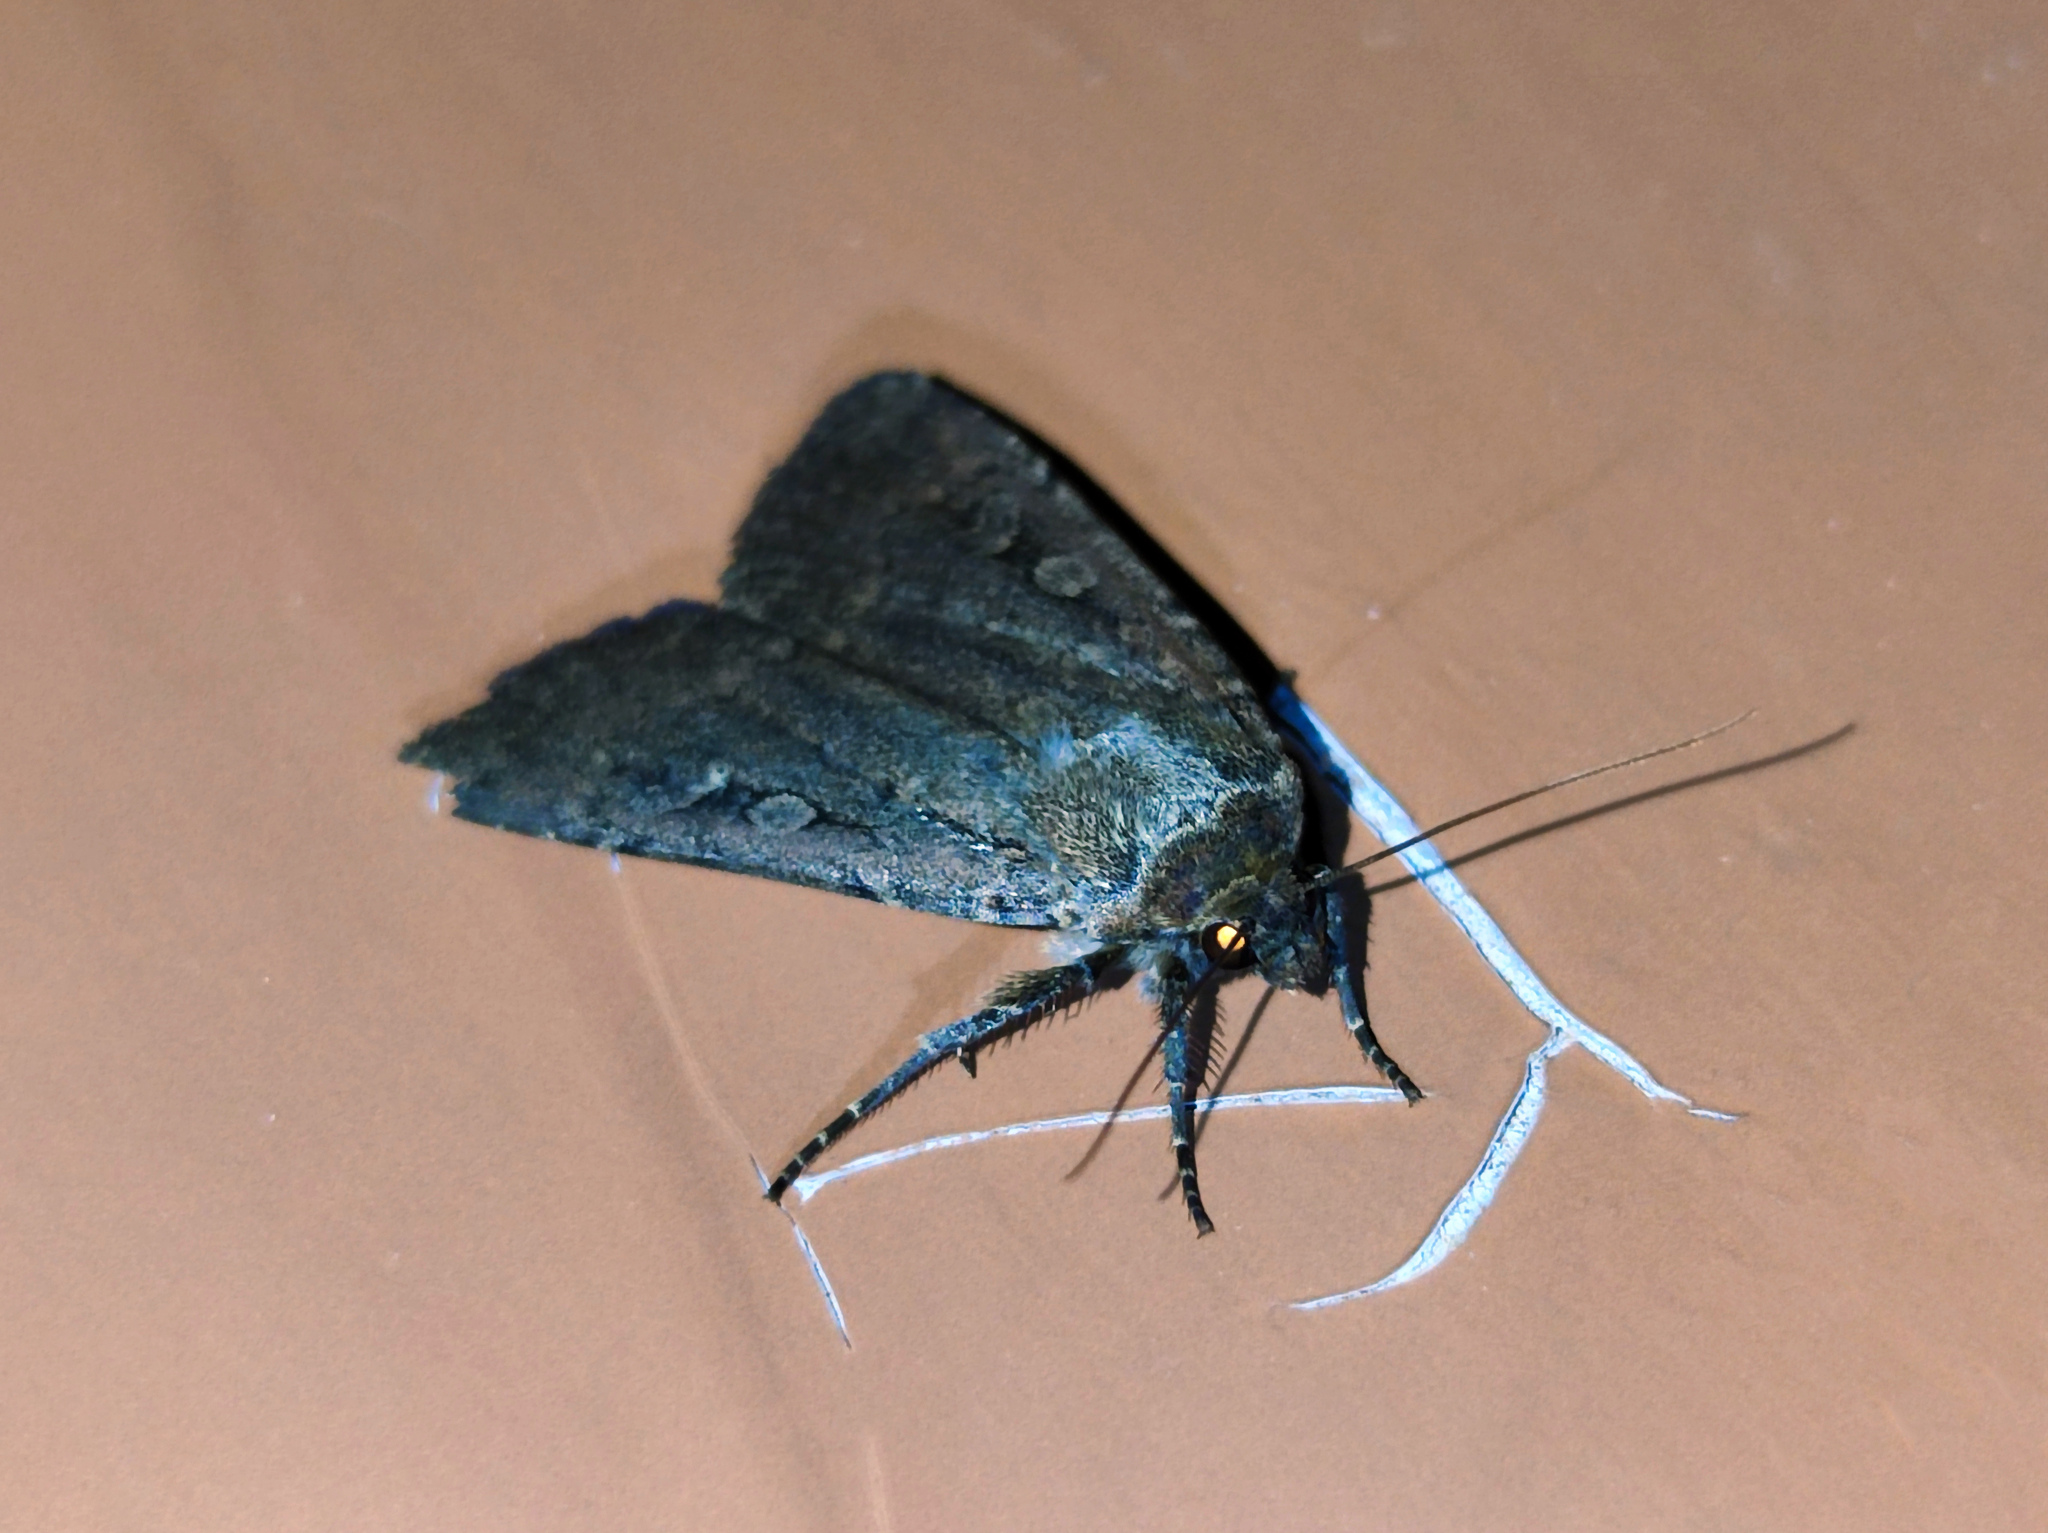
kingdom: Animalia
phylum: Arthropoda
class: Insecta
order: Lepidoptera
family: Noctuidae
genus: Spaelotis
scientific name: Spaelotis ravida
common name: Stout dart
